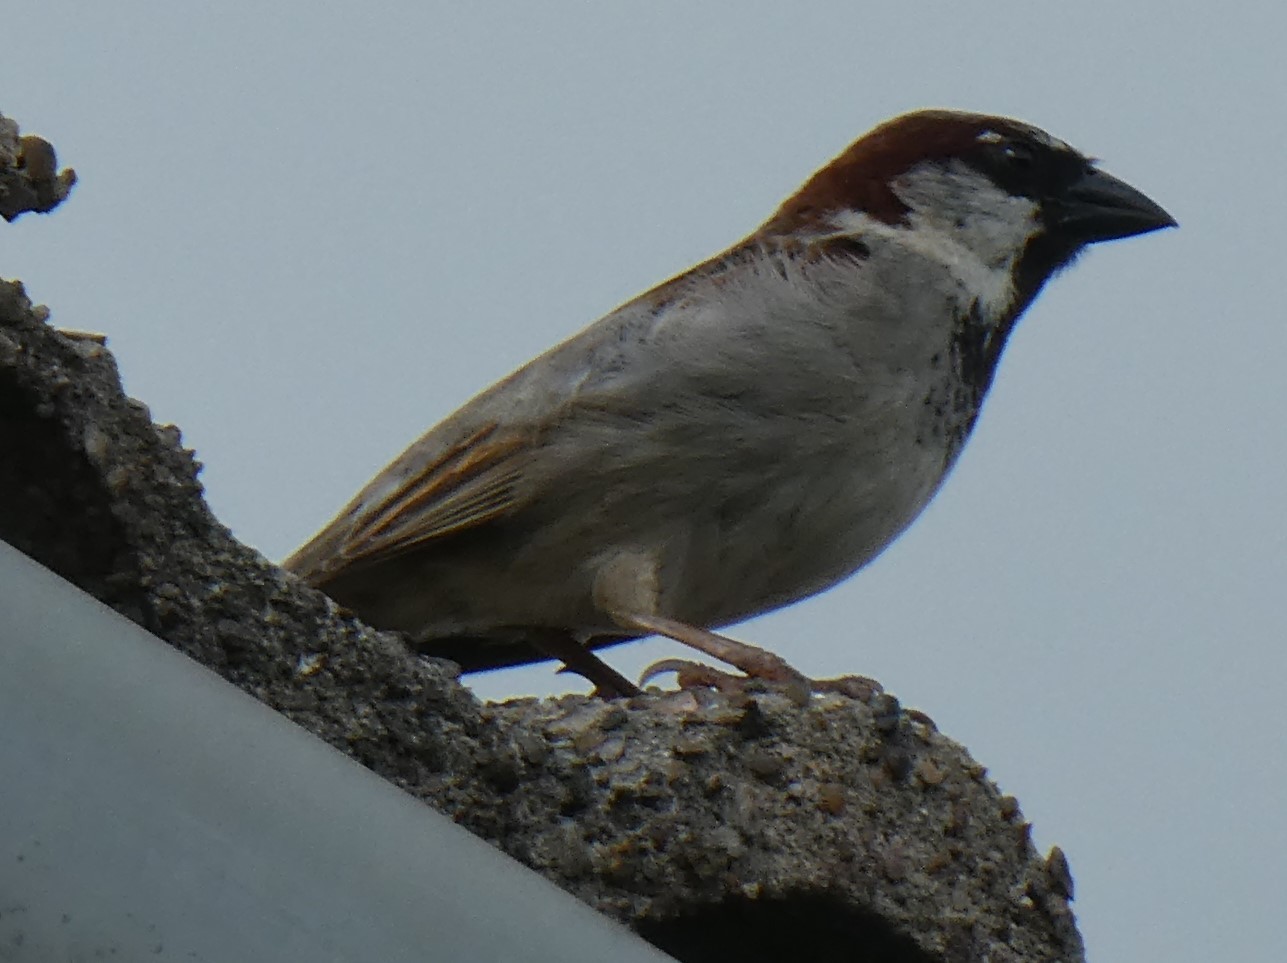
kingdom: Animalia
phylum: Chordata
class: Aves
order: Passeriformes
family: Passeridae
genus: Passer
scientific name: Passer domesticus
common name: House sparrow
